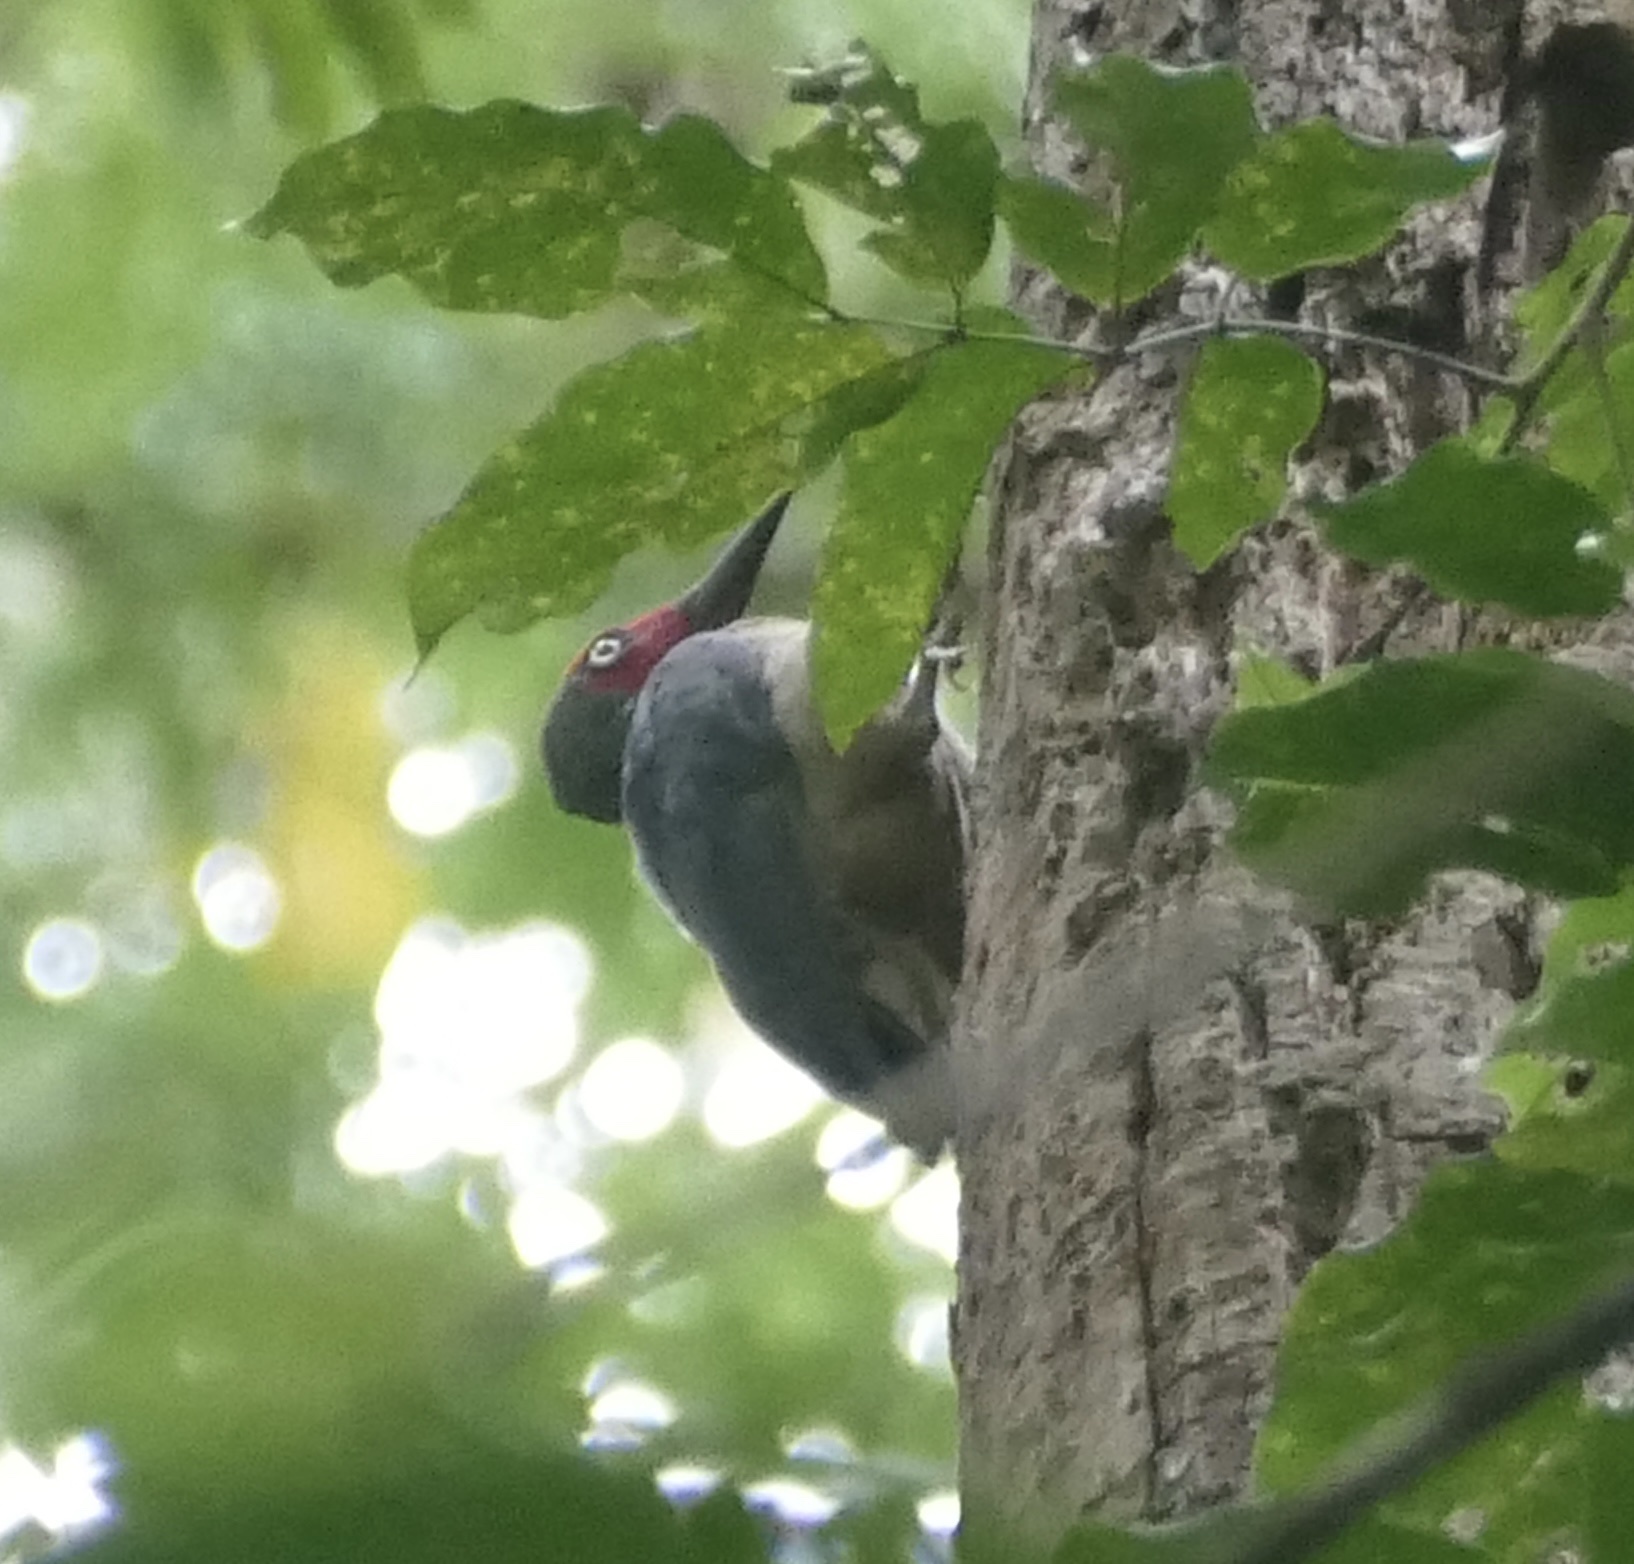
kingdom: Animalia
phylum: Chordata
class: Aves
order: Piciformes
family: Picidae
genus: Mulleripicus
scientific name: Mulleripicus fulvus
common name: Ashy woodpecker
